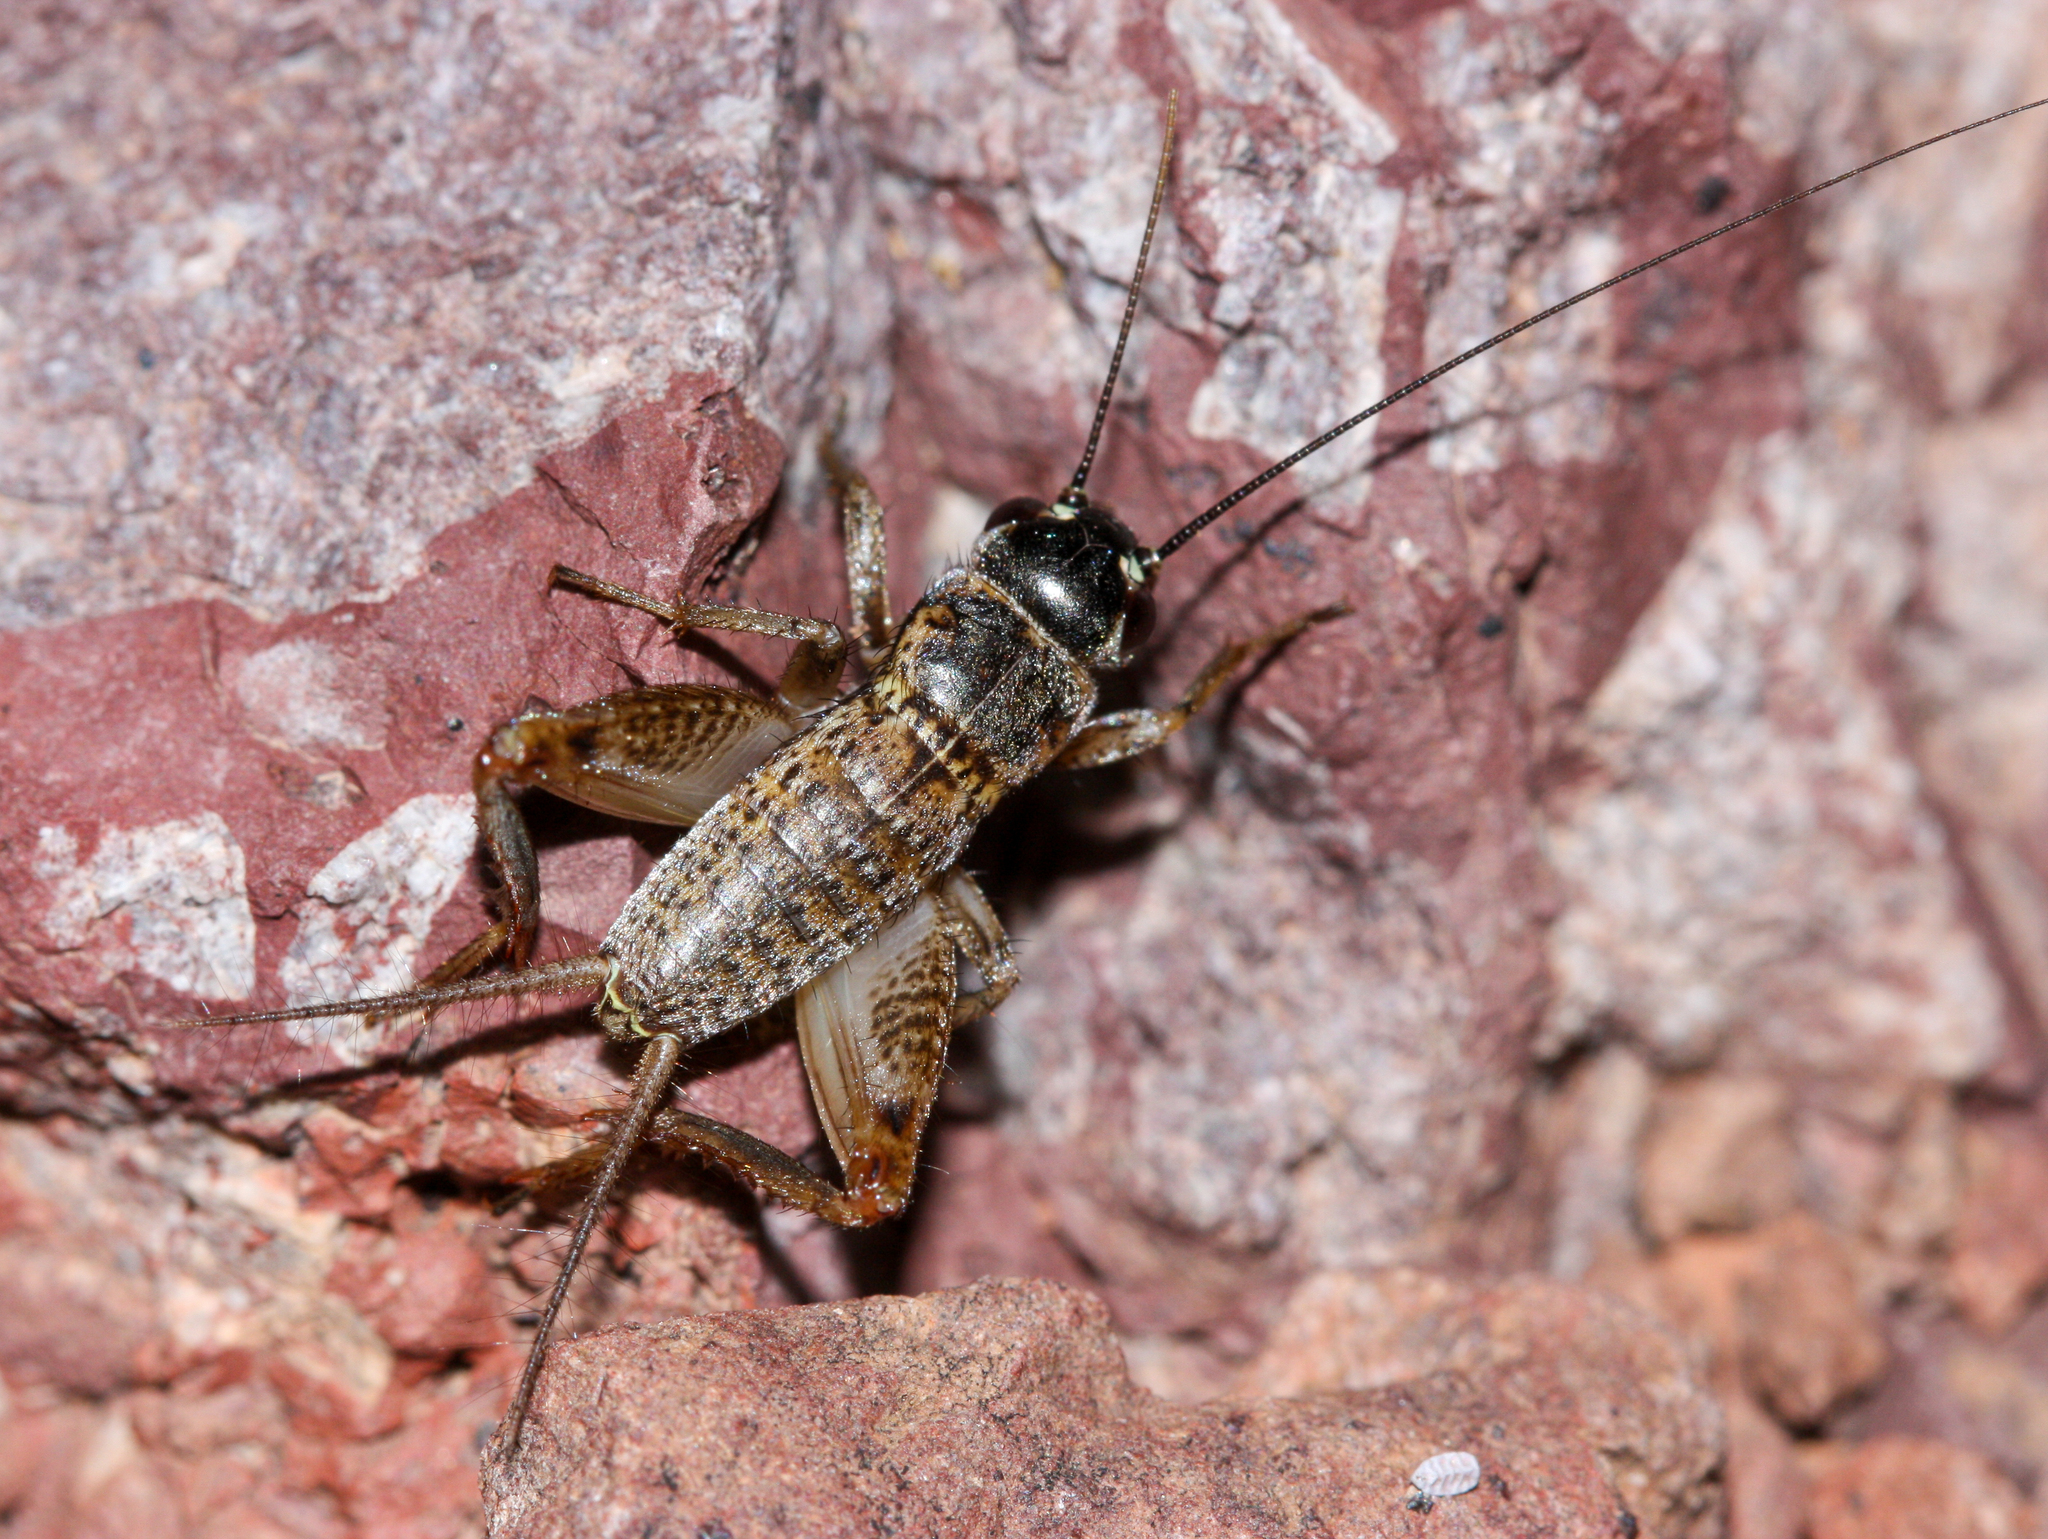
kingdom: Animalia
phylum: Arthropoda
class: Insecta
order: Orthoptera
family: Gryllidae
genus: Gryllus
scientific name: Gryllus
